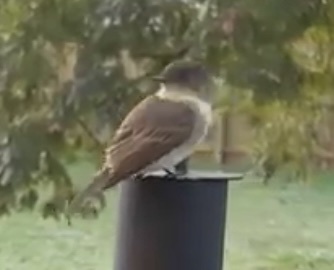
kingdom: Animalia
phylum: Chordata
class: Aves
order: Passeriformes
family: Tyrannidae
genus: Sayornis
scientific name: Sayornis phoebe
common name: Eastern phoebe
